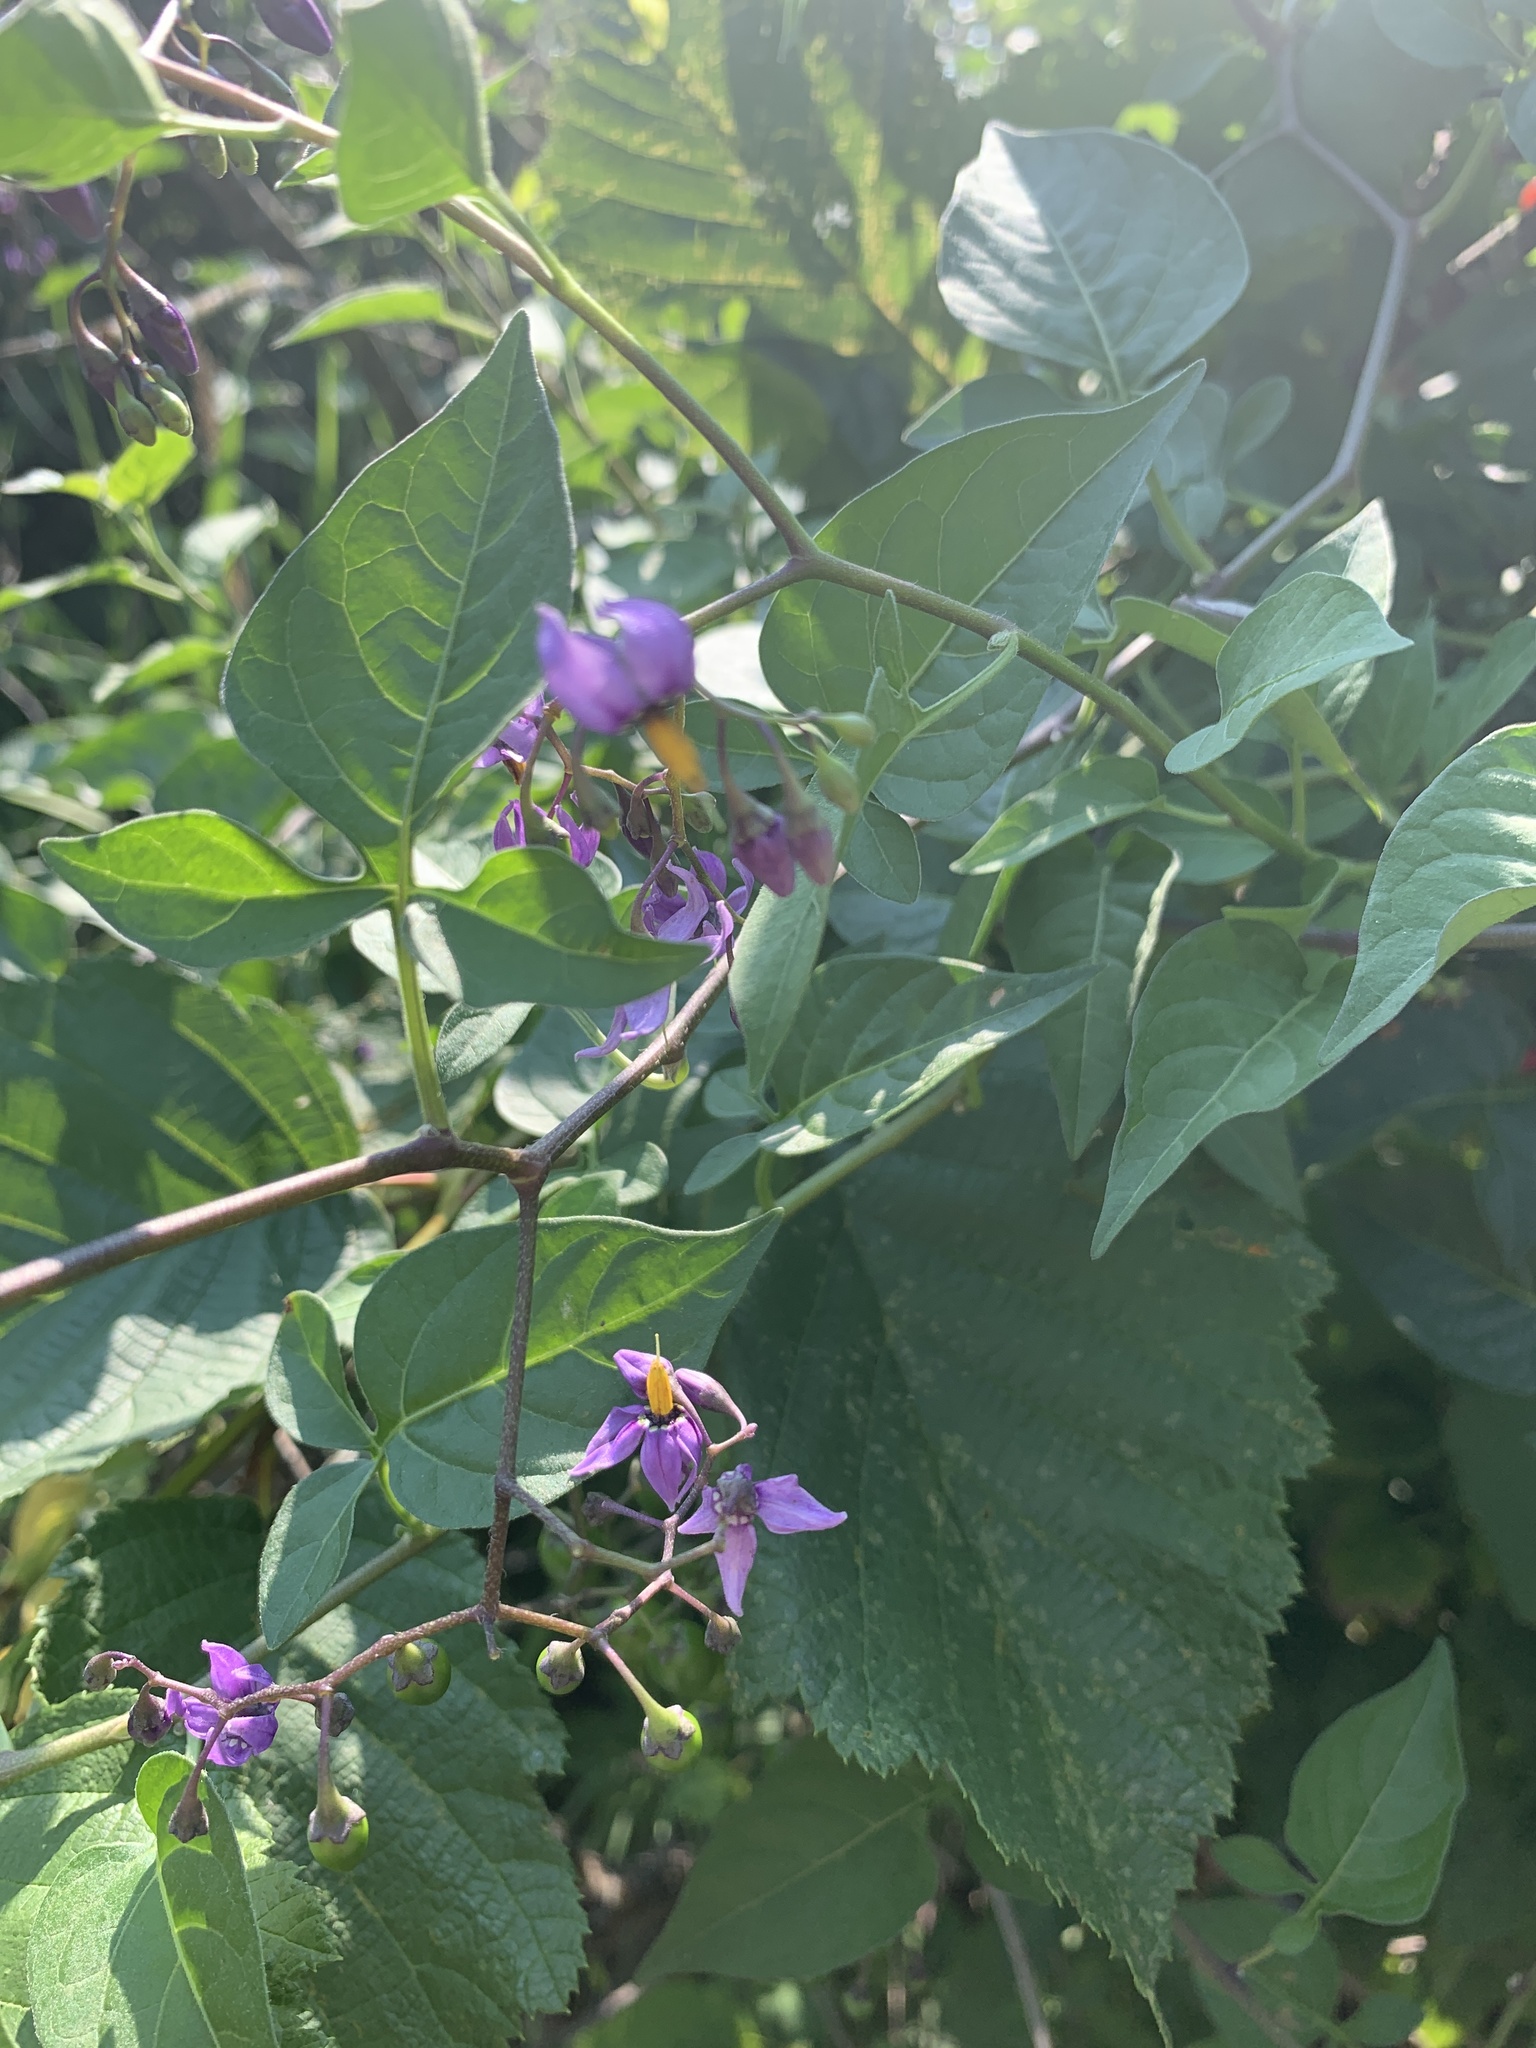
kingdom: Plantae
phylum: Tracheophyta
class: Magnoliopsida
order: Solanales
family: Solanaceae
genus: Solanum
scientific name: Solanum dulcamara
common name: Climbing nightshade
